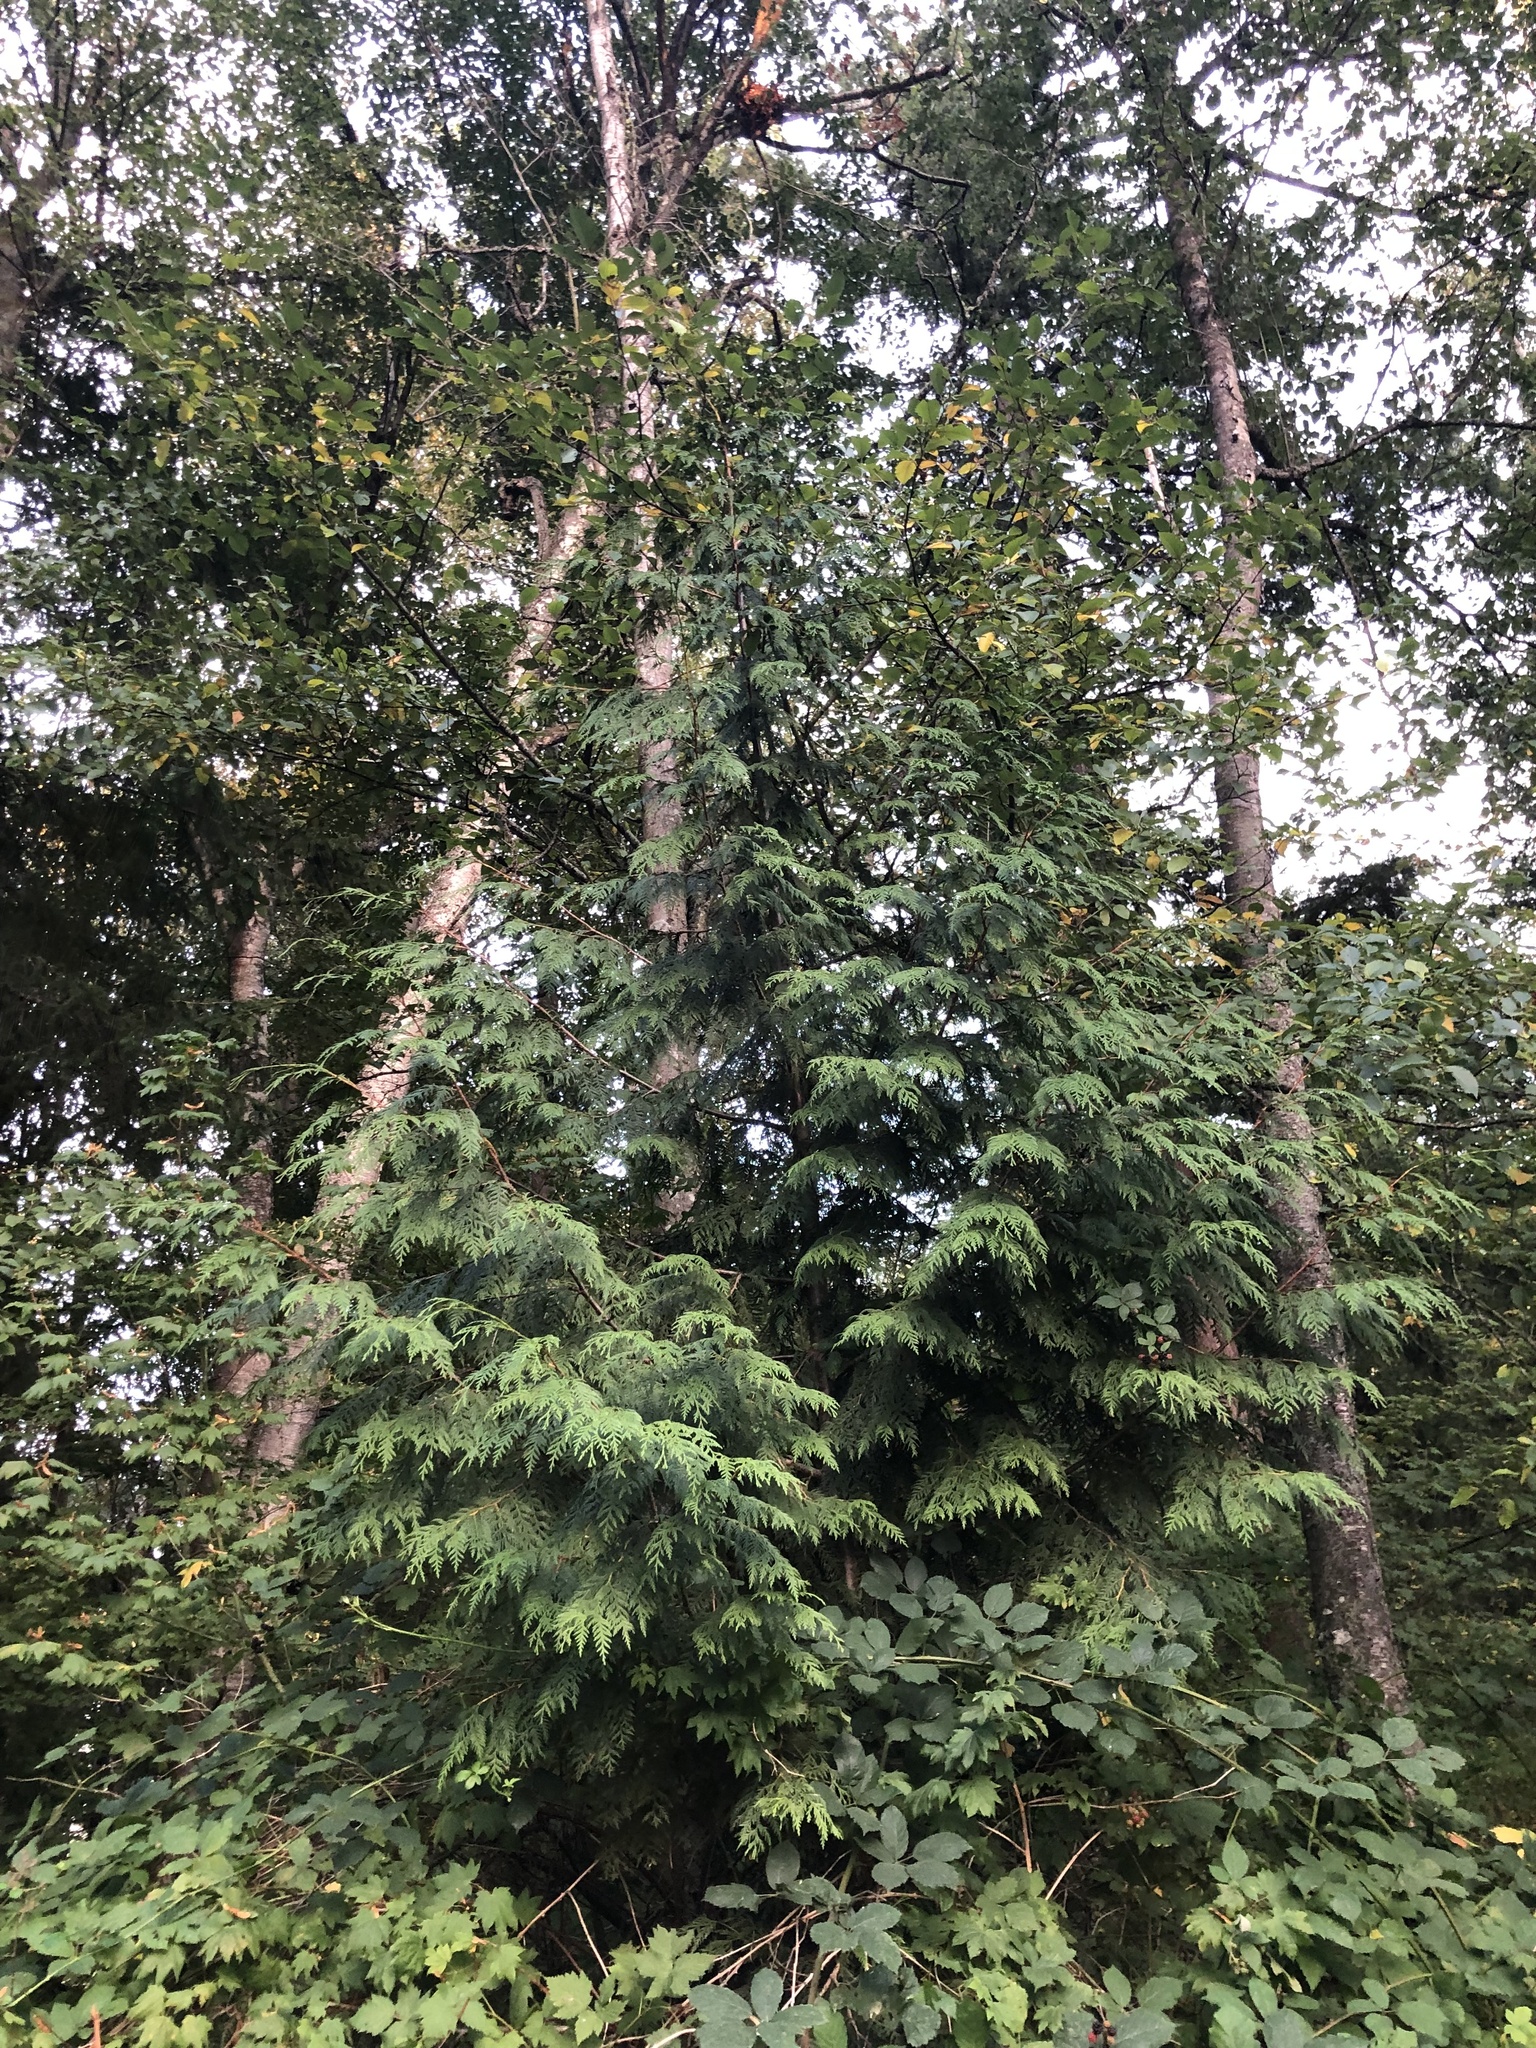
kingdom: Plantae
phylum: Tracheophyta
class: Pinopsida
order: Pinales
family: Cupressaceae
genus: Thuja
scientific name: Thuja plicata
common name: Western red-cedar
